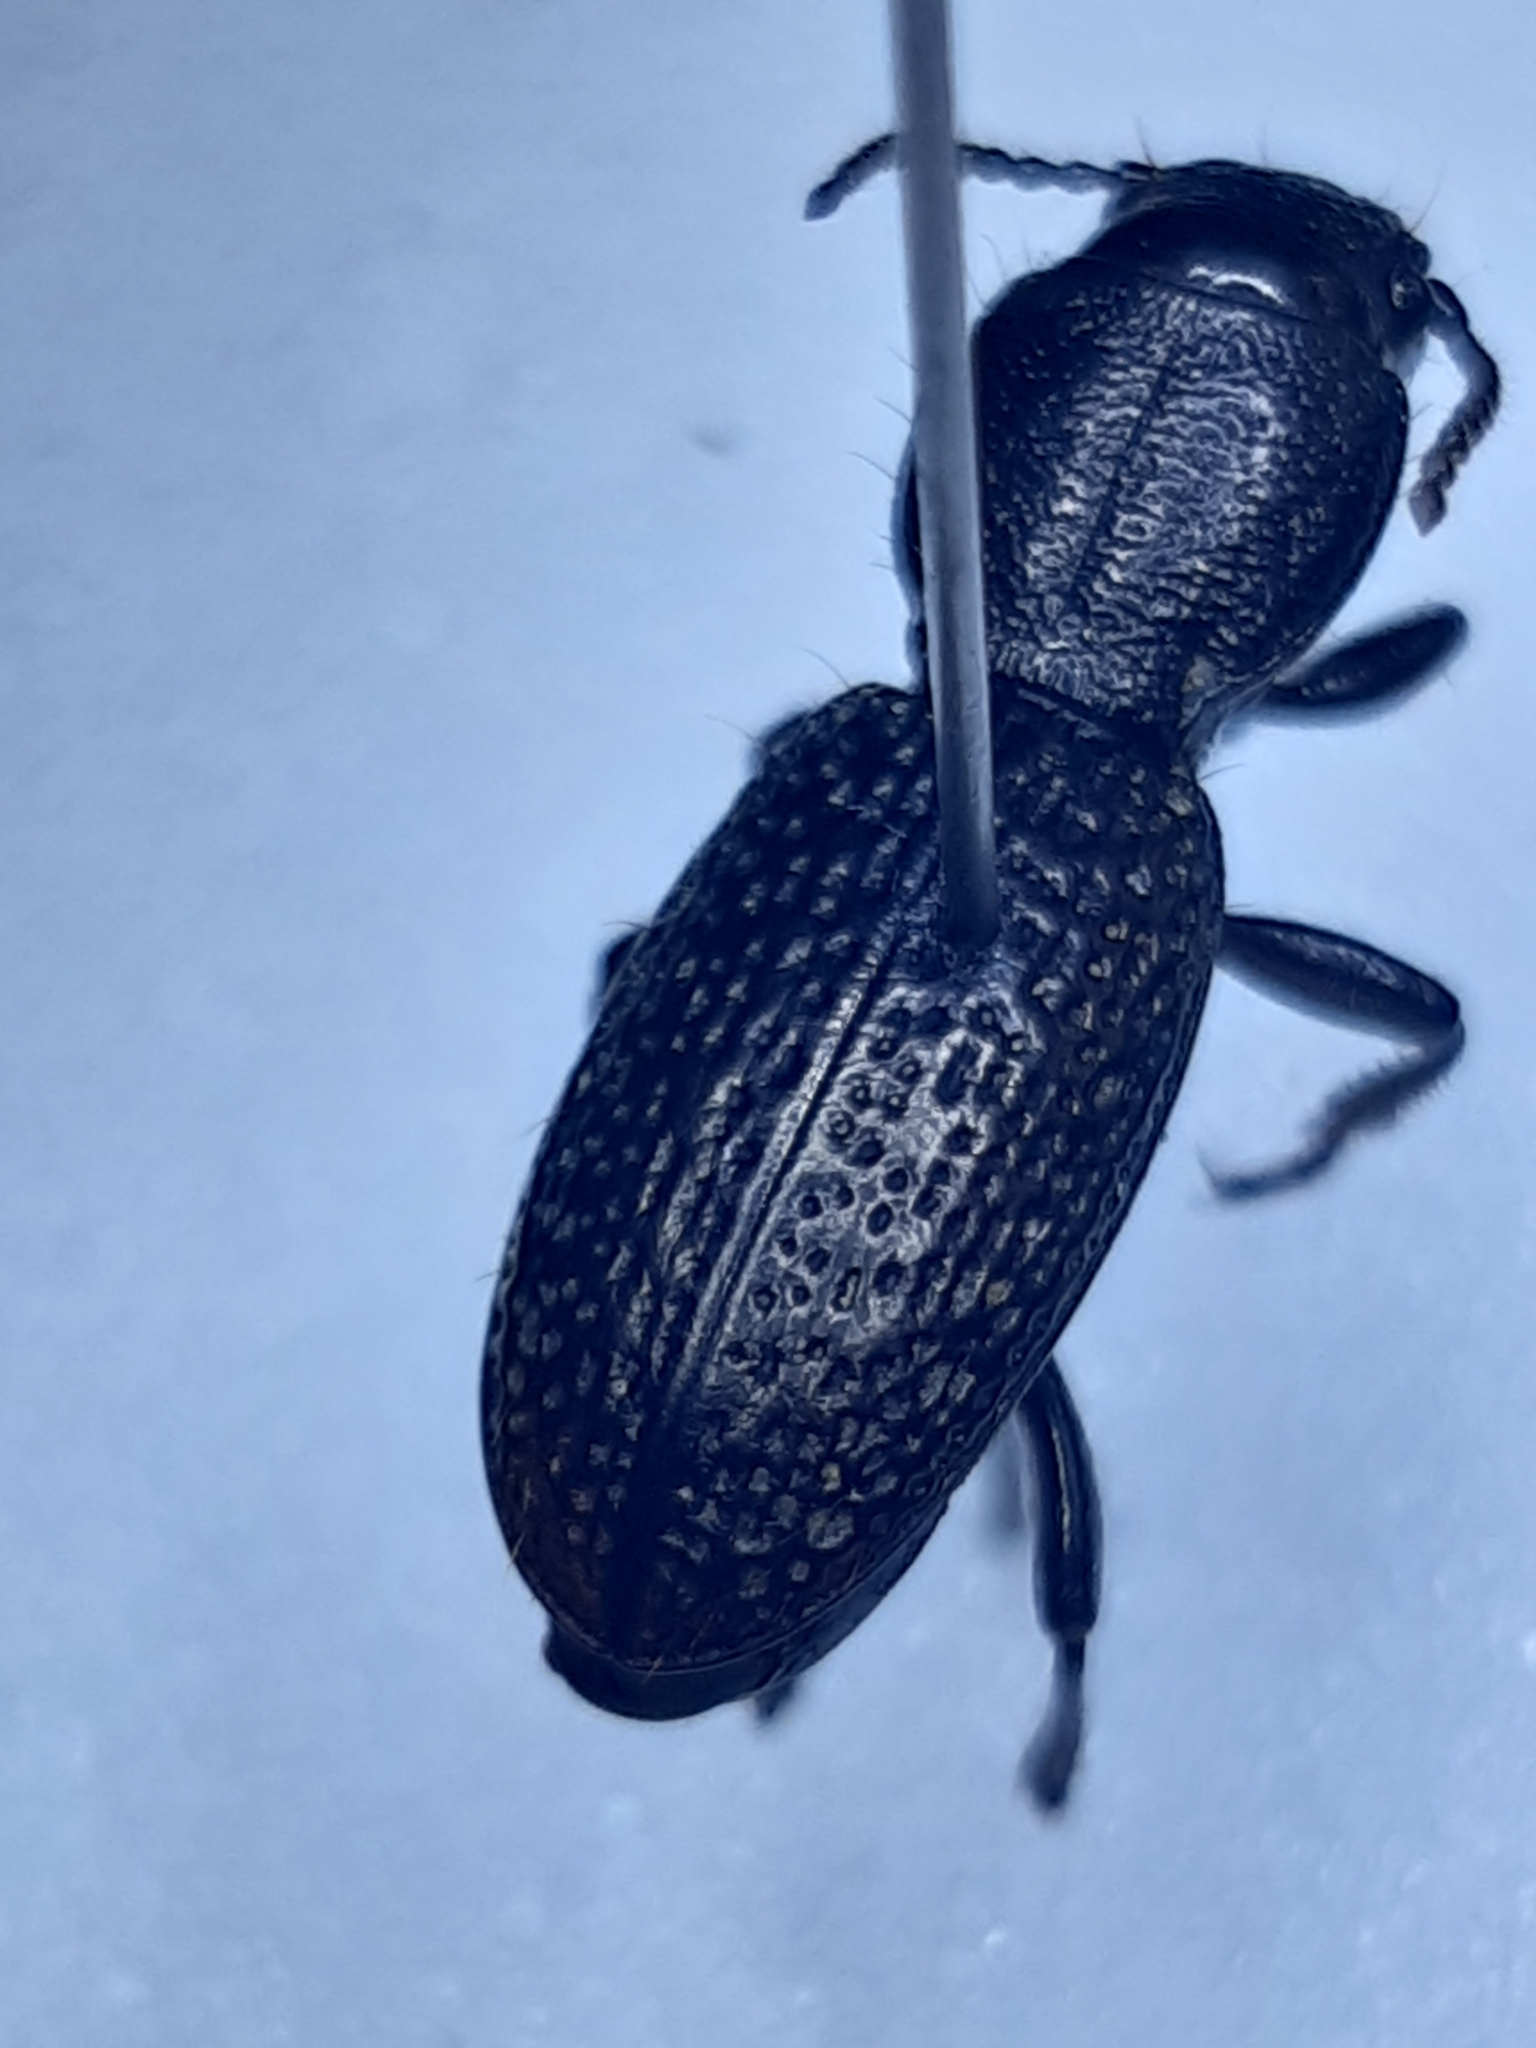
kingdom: Animalia
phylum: Arthropoda
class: Insecta
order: Coleoptera
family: Carabidae
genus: Mecodema
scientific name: Mecodema rugiceps
